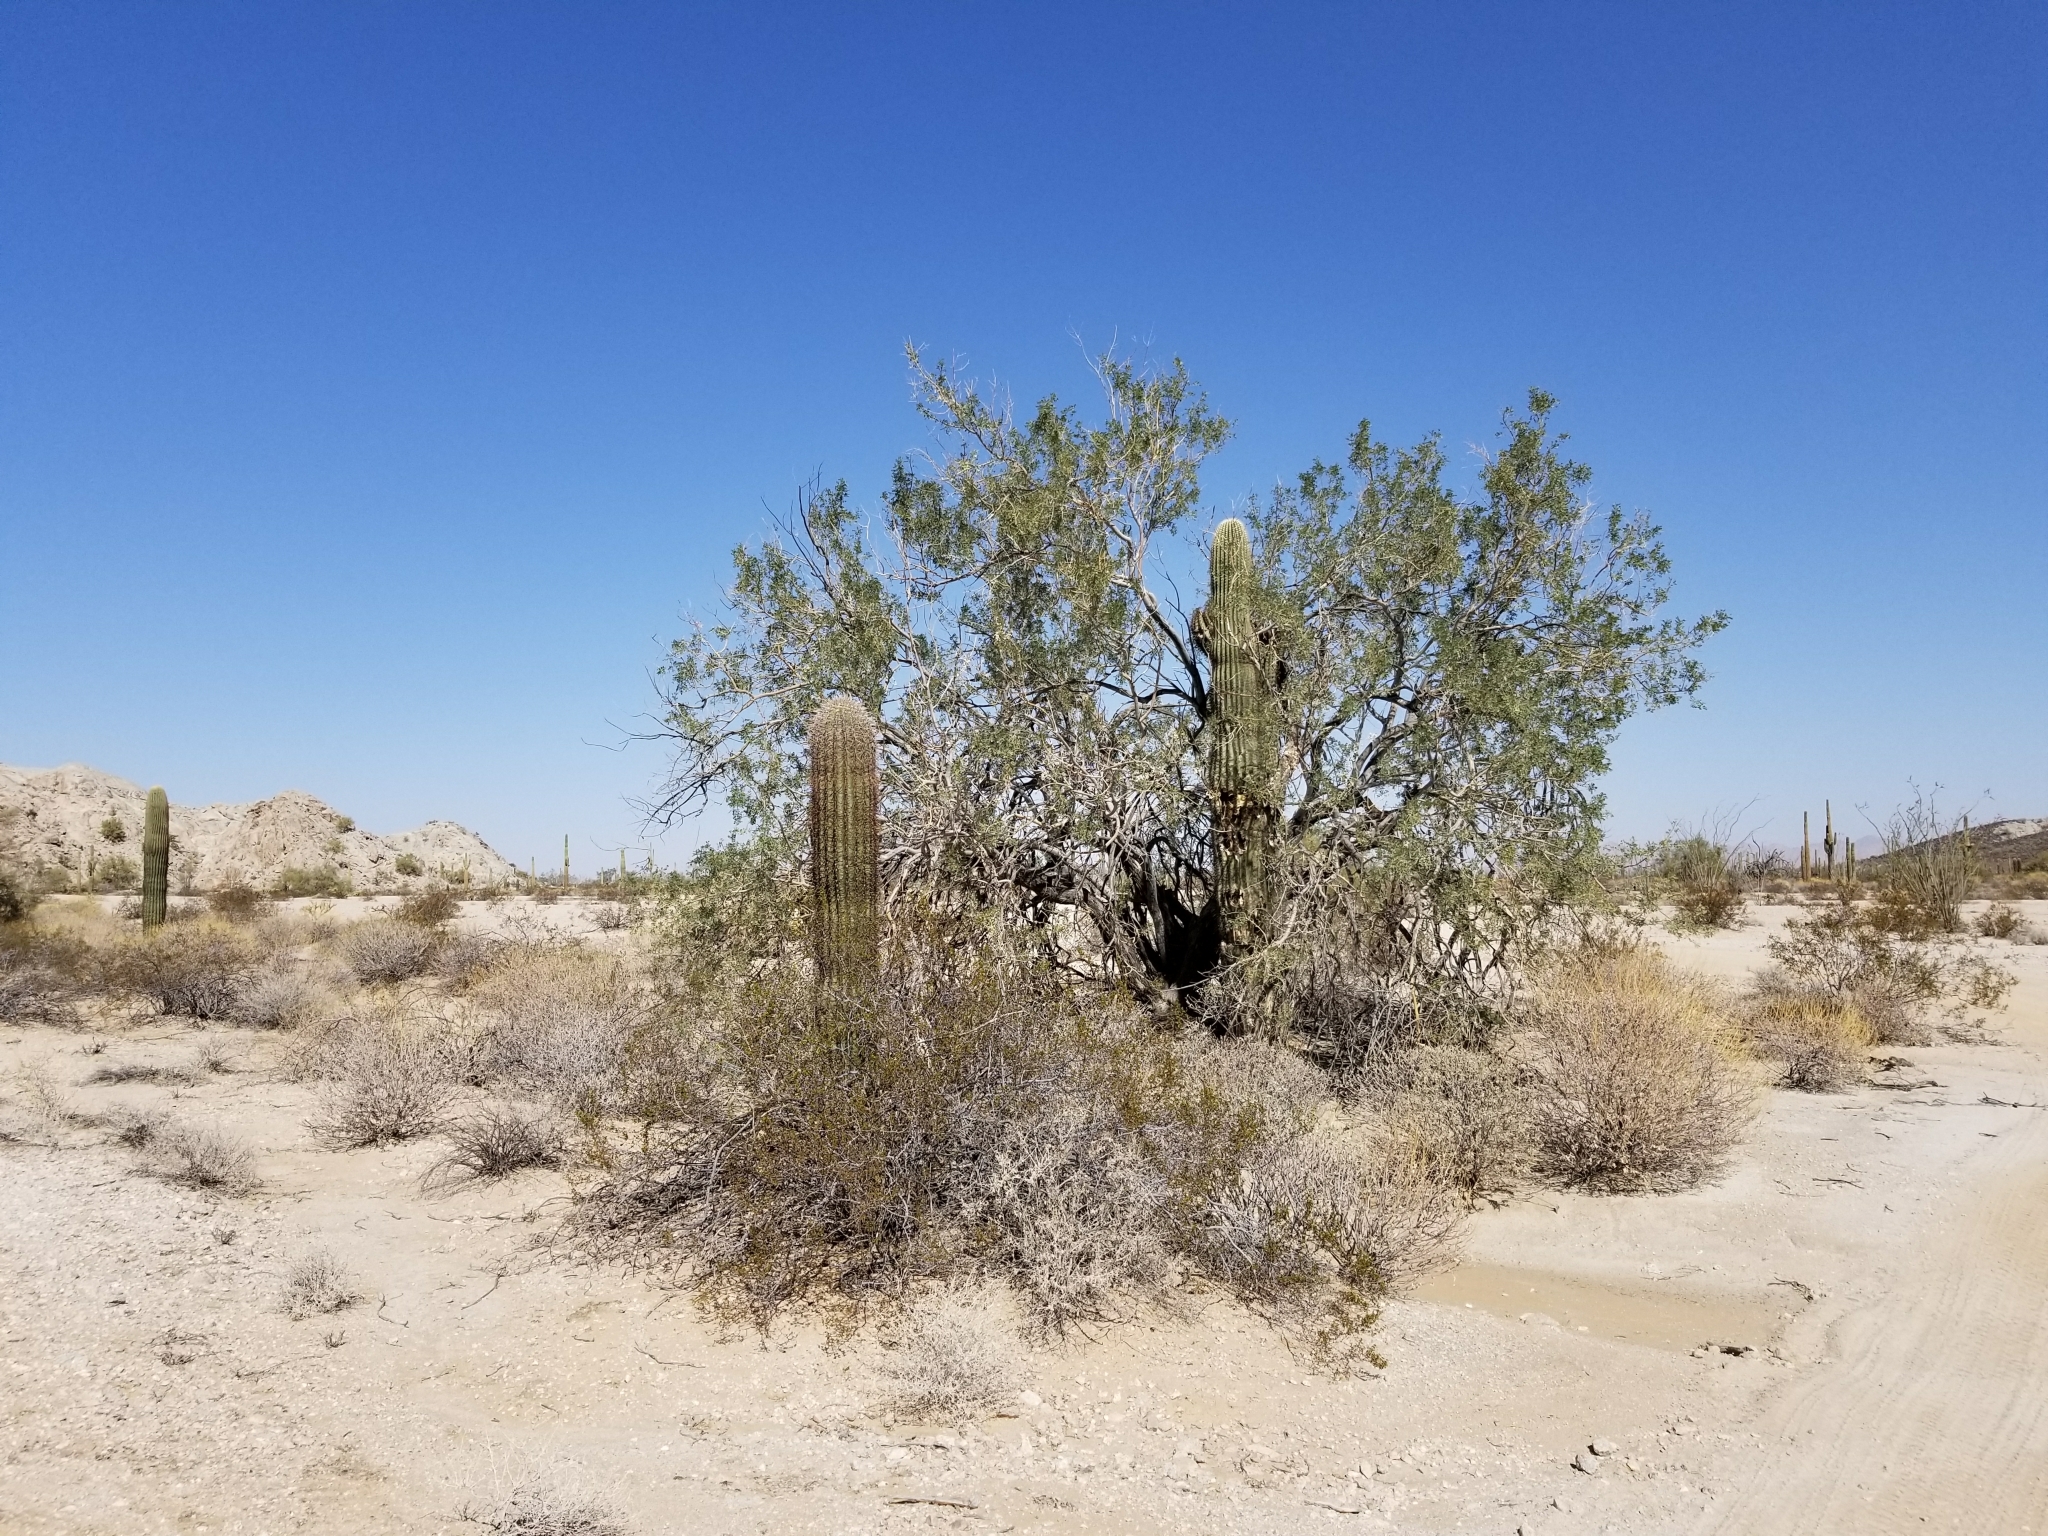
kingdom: Plantae
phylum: Tracheophyta
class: Magnoliopsida
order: Caryophyllales
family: Cactaceae
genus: Carnegiea
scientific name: Carnegiea gigantea
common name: Saguaro
